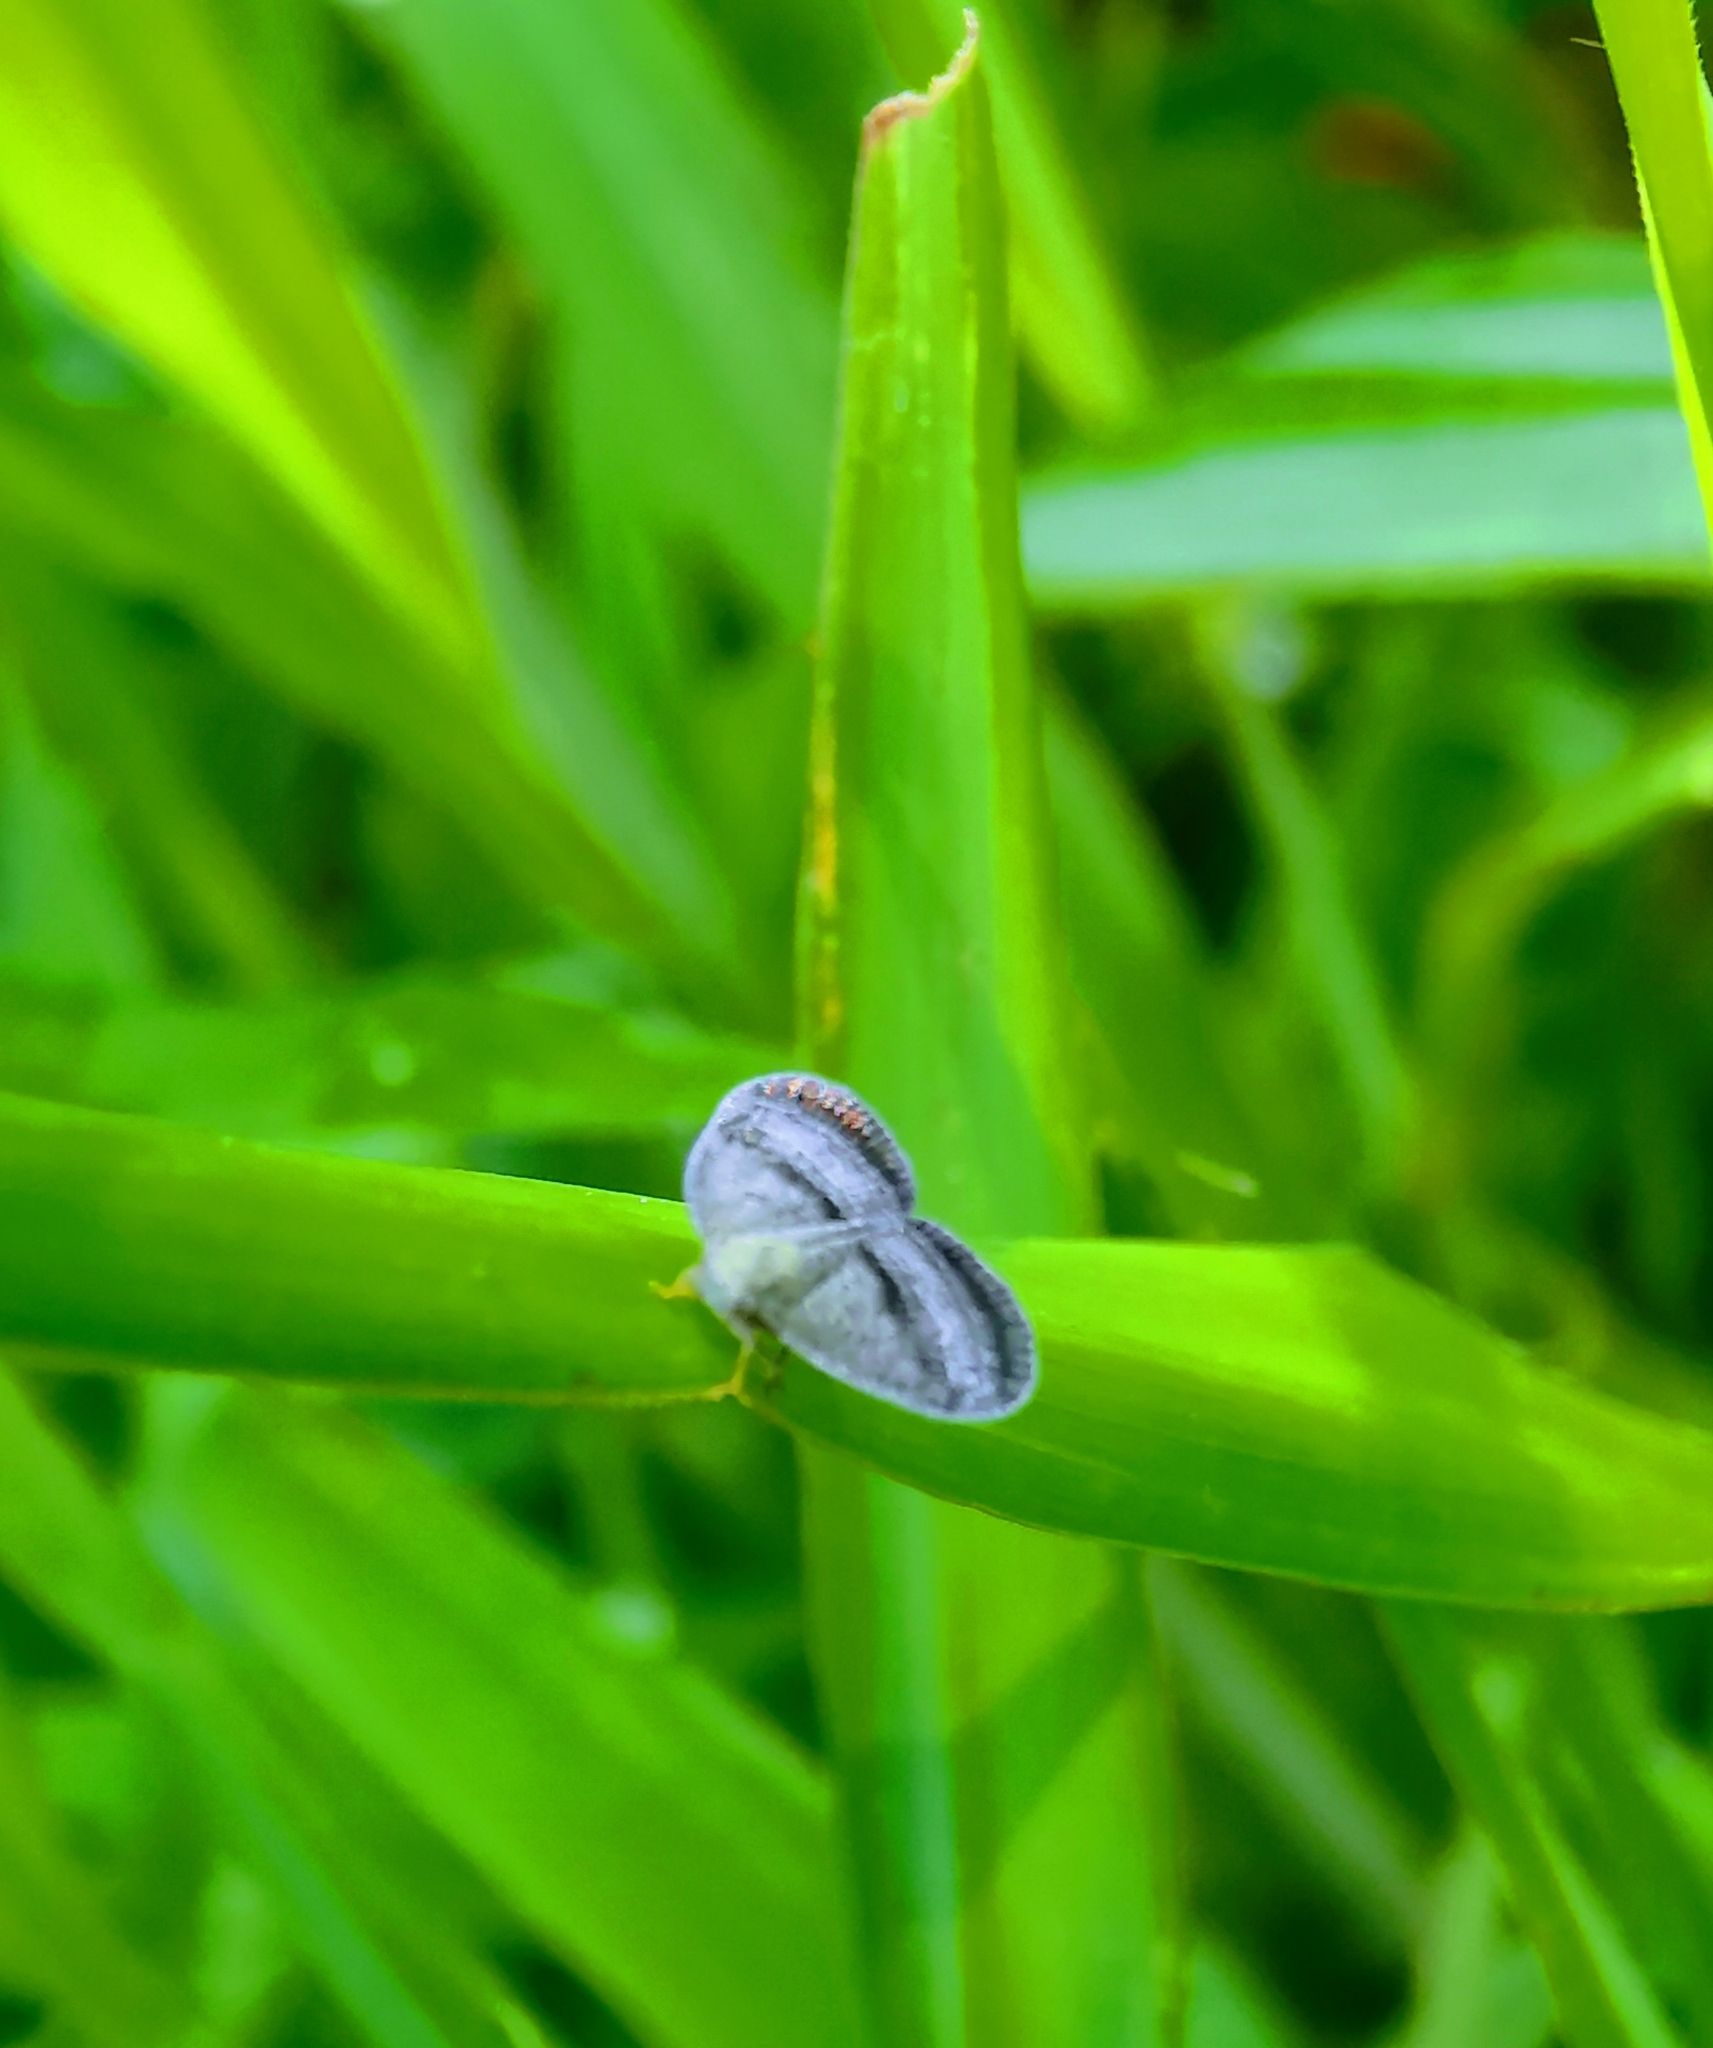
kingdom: Animalia
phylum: Arthropoda
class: Insecta
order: Hemiptera
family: Ricaniidae
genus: Ricania
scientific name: Ricania taeniata
